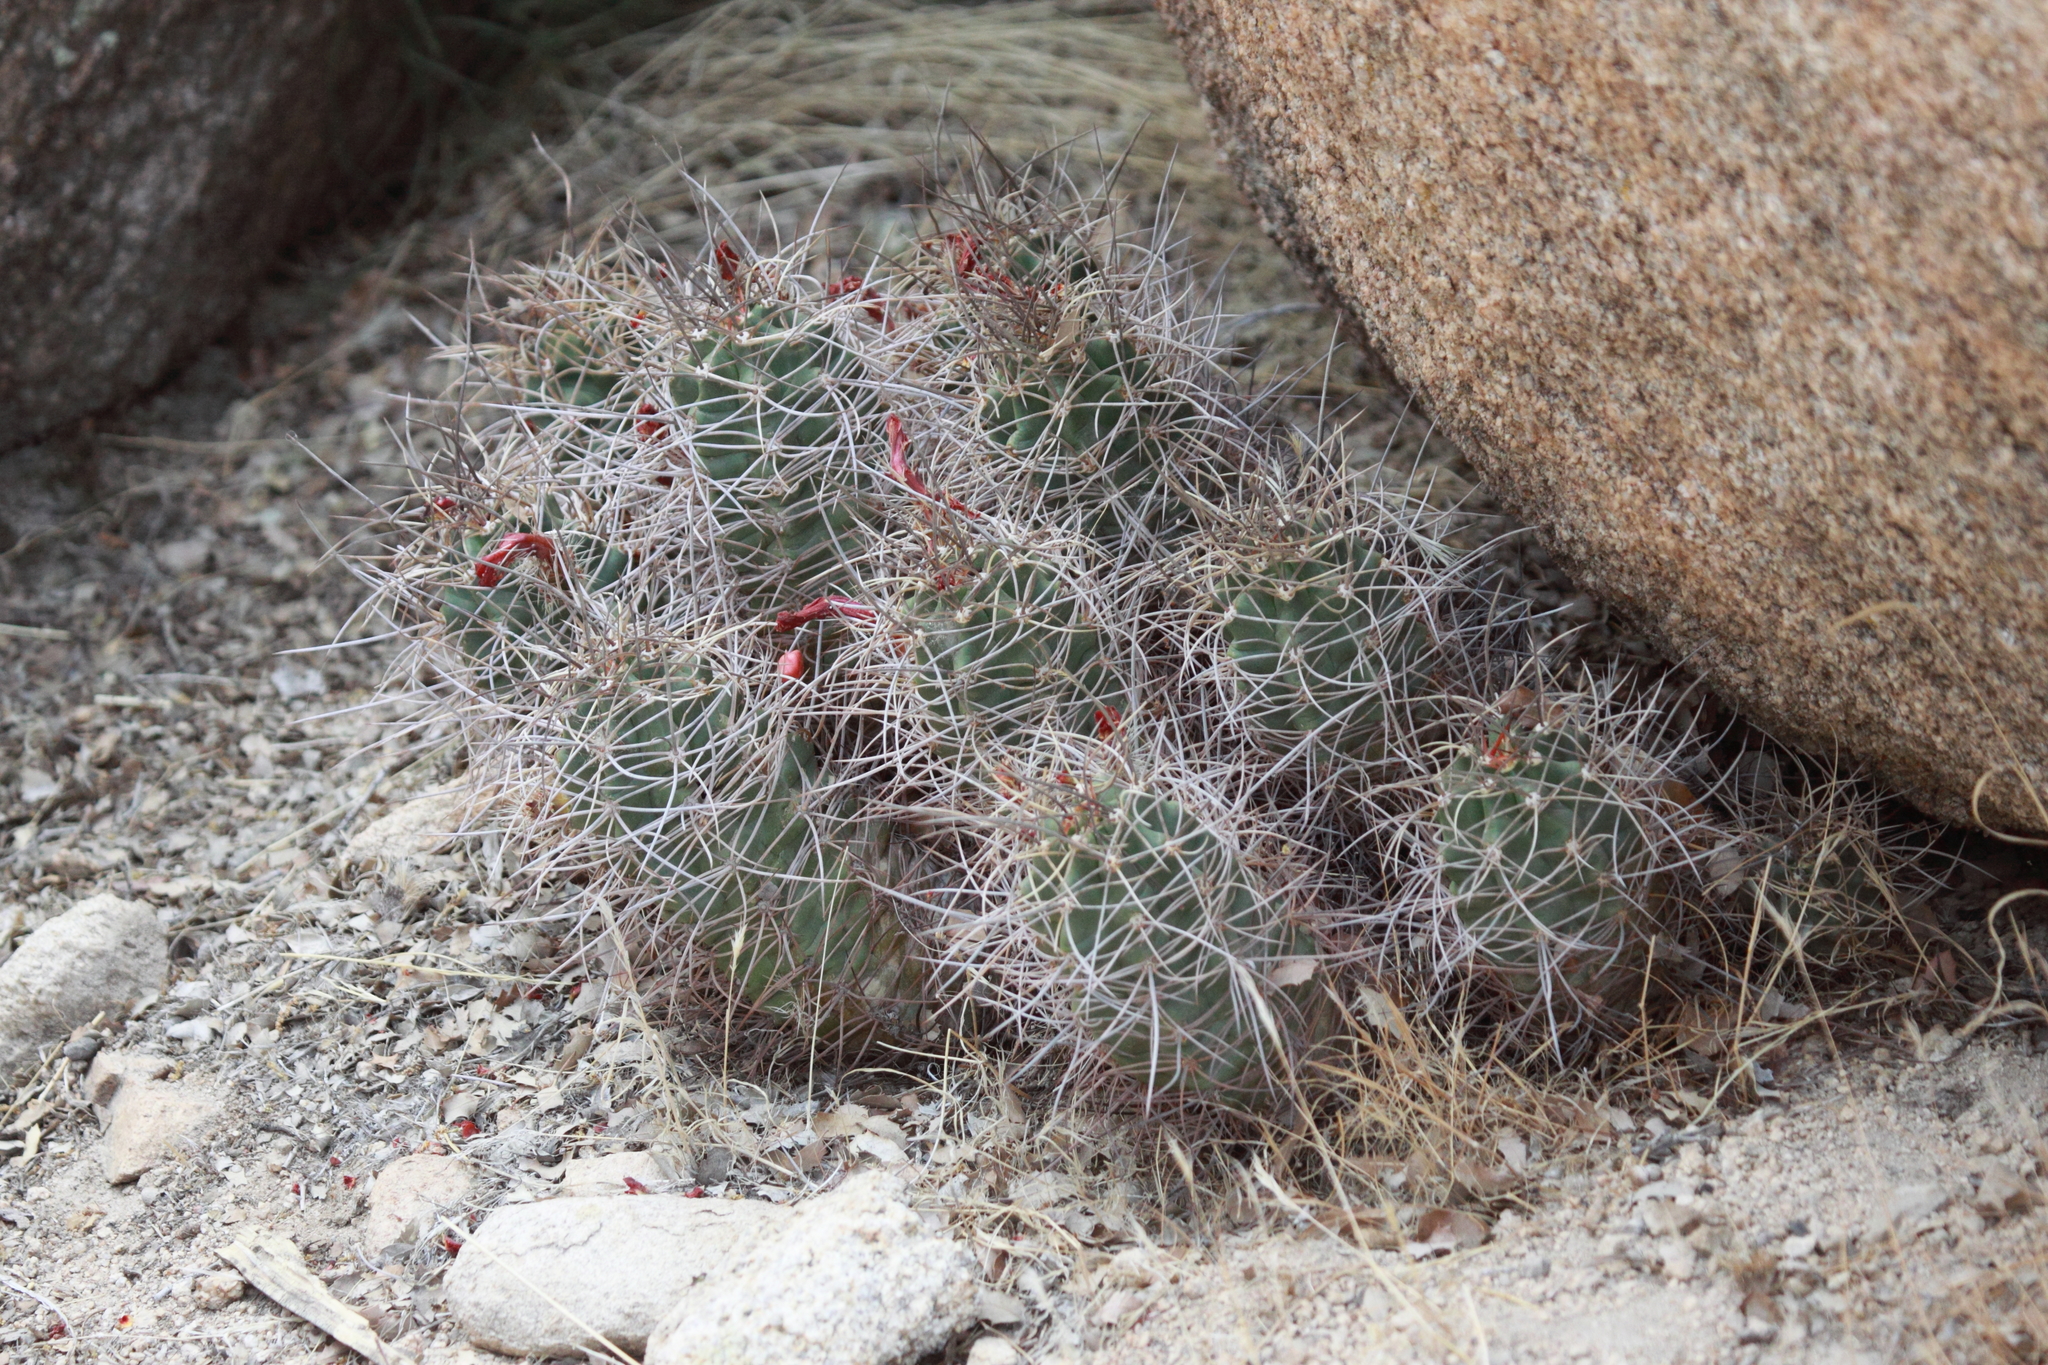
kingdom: Plantae
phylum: Tracheophyta
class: Magnoliopsida
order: Caryophyllales
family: Cactaceae
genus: Echinocereus
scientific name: Echinocereus triglochidiatus
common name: Claretcup hedgehog
